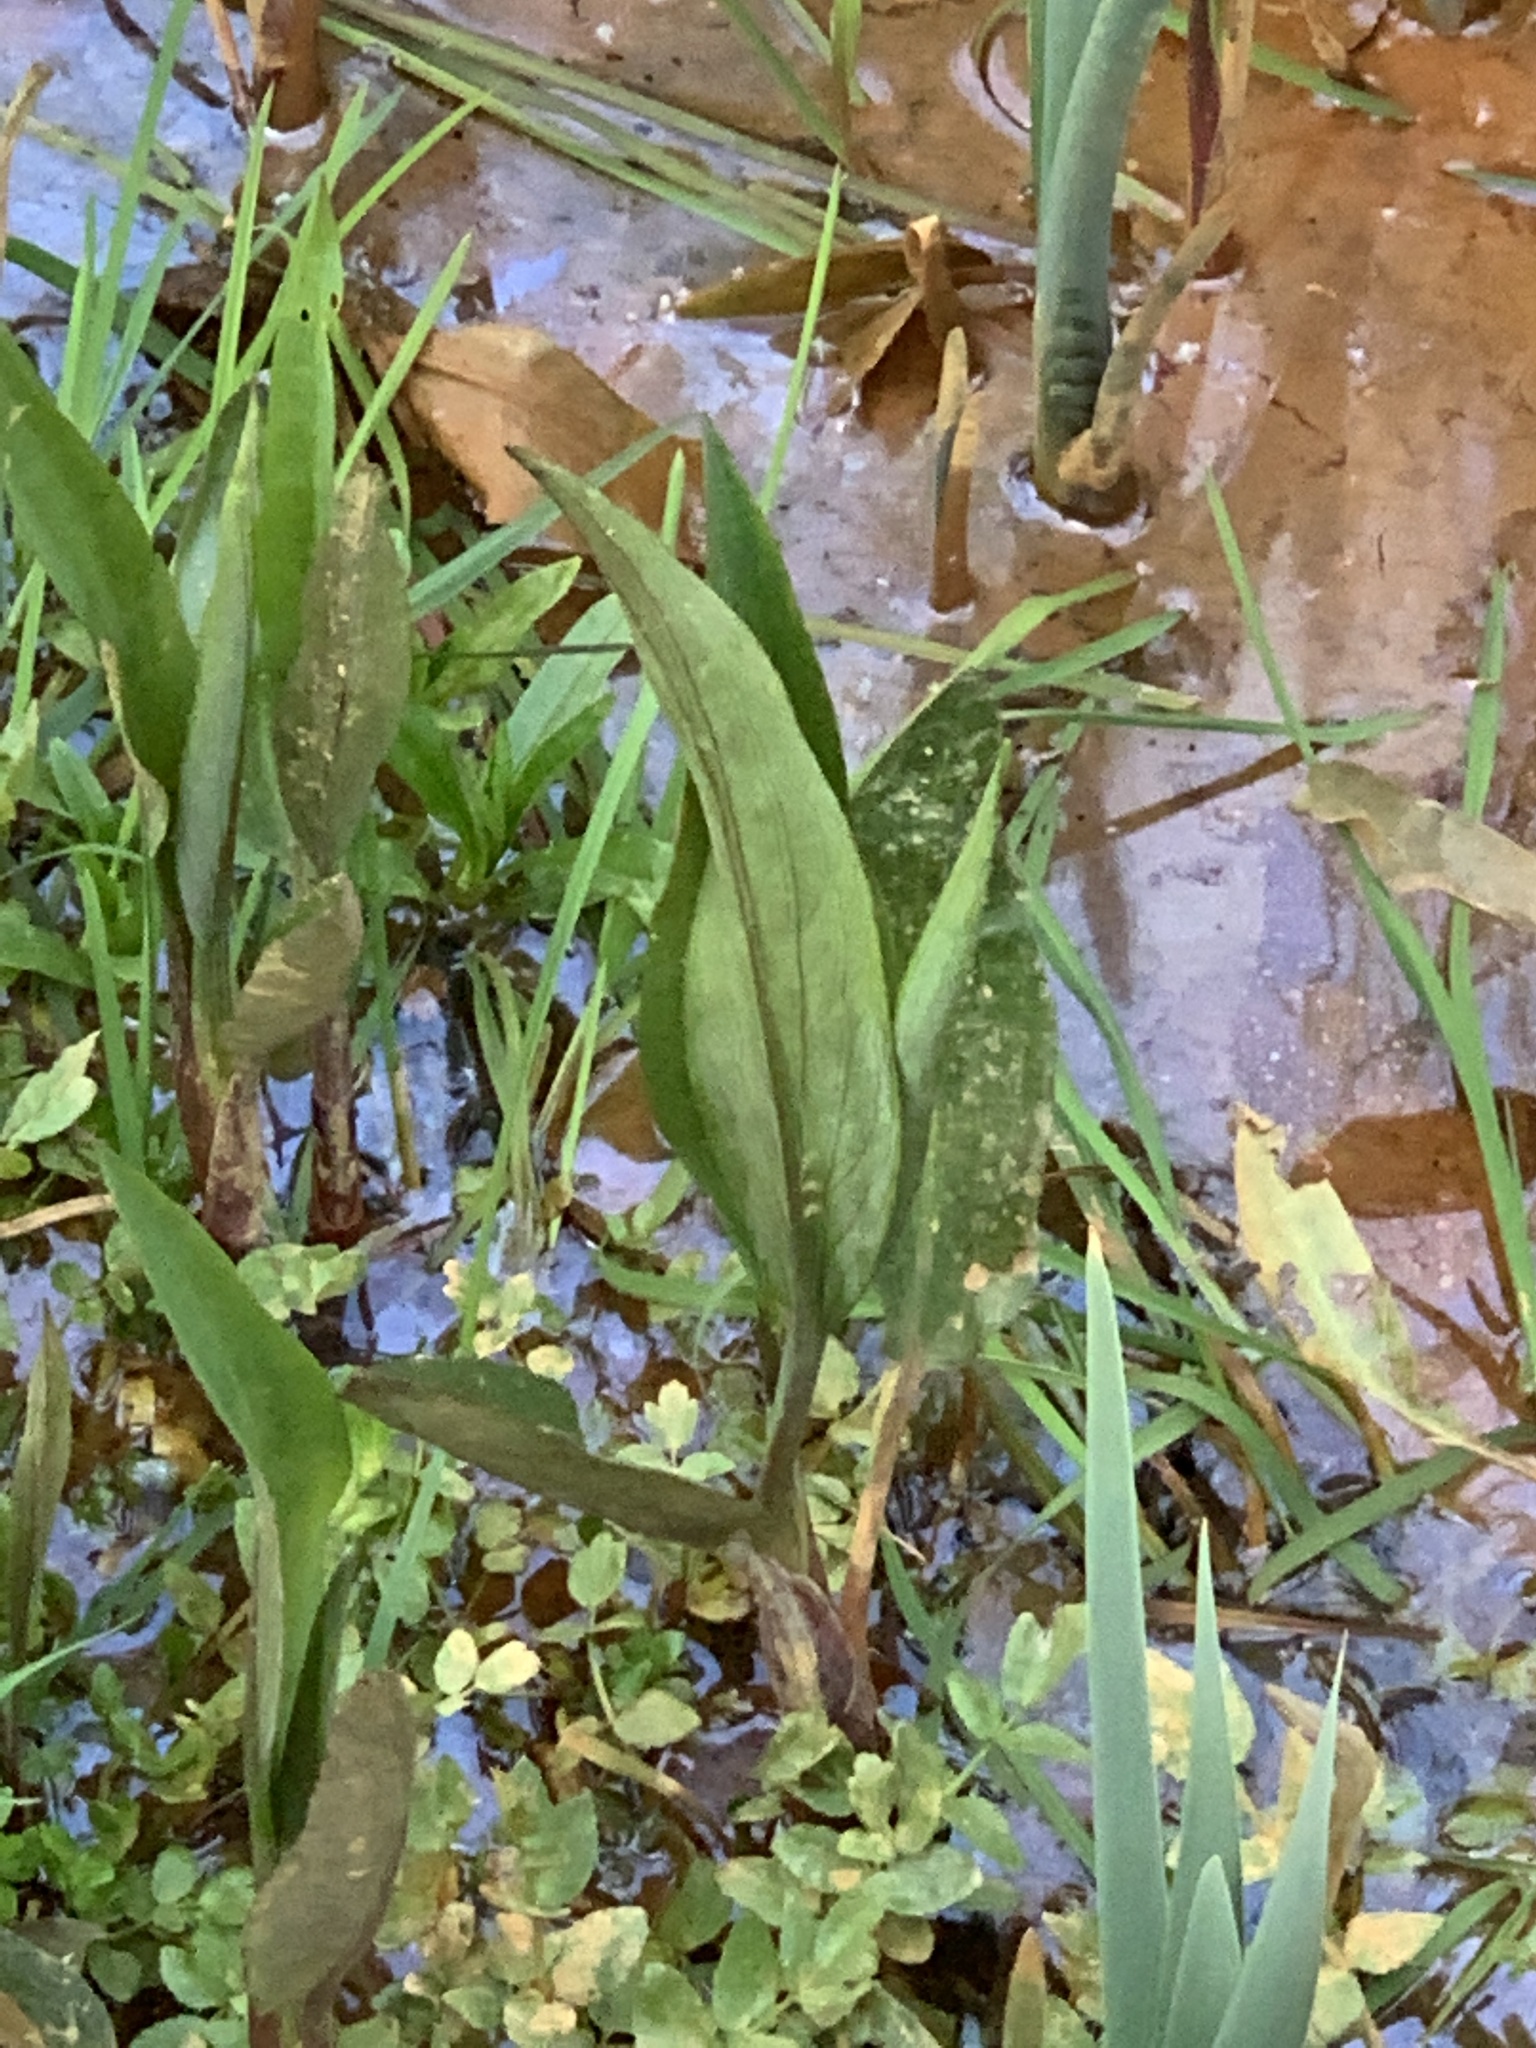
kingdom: Plantae
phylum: Tracheophyta
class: Liliopsida
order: Alismatales
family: Alismataceae
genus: Alisma
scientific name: Alisma plantago-aquatica
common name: Water-plantain
